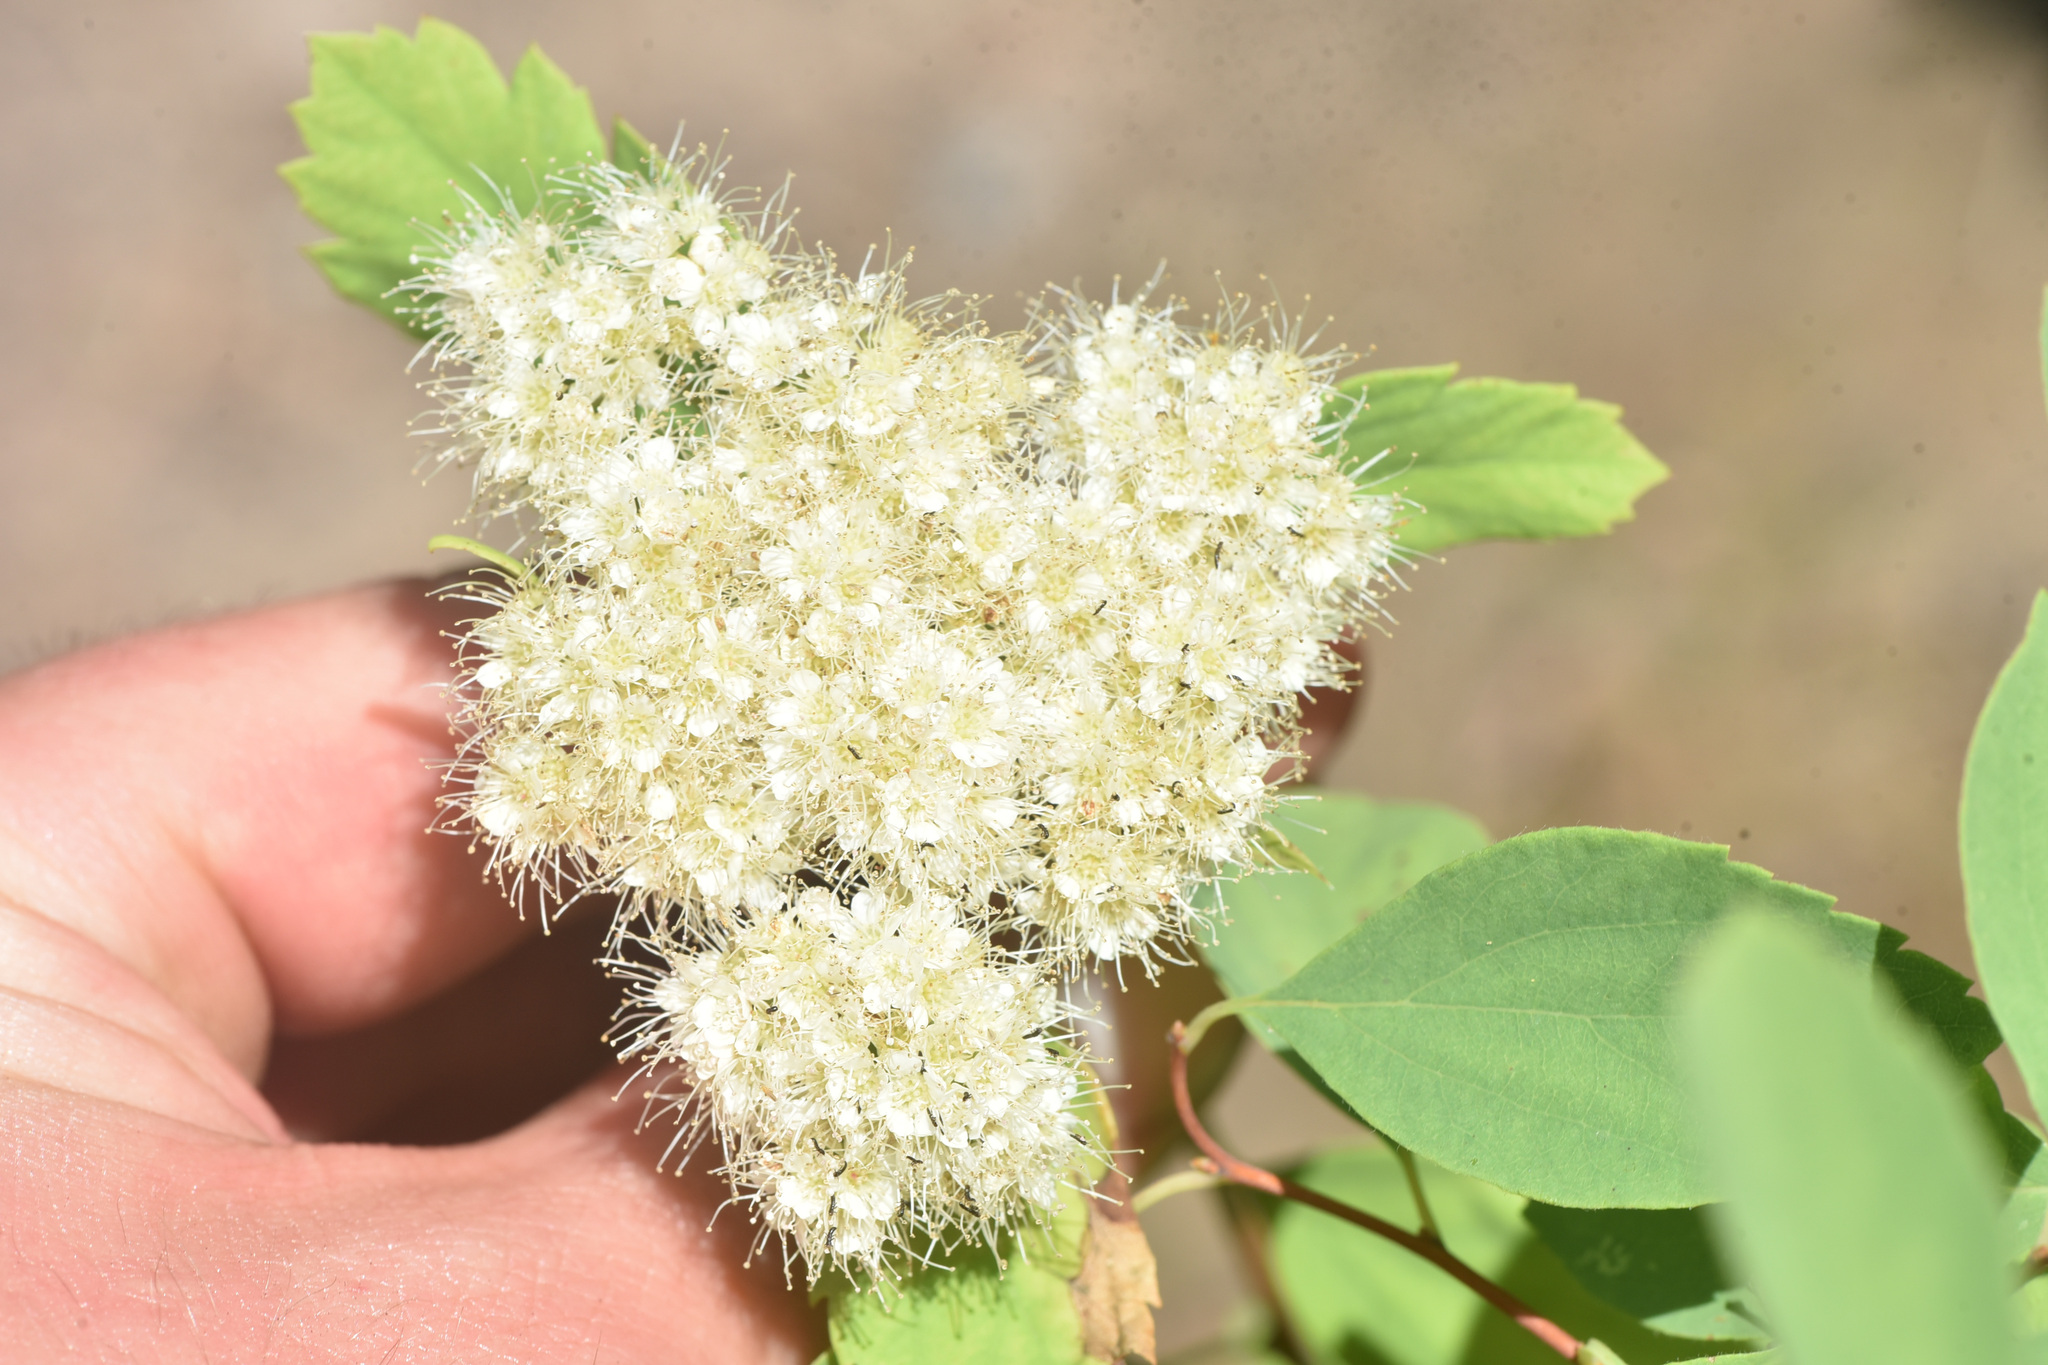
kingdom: Plantae
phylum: Tracheophyta
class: Magnoliopsida
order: Rosales
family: Rosaceae
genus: Spiraea
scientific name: Spiraea lucida
